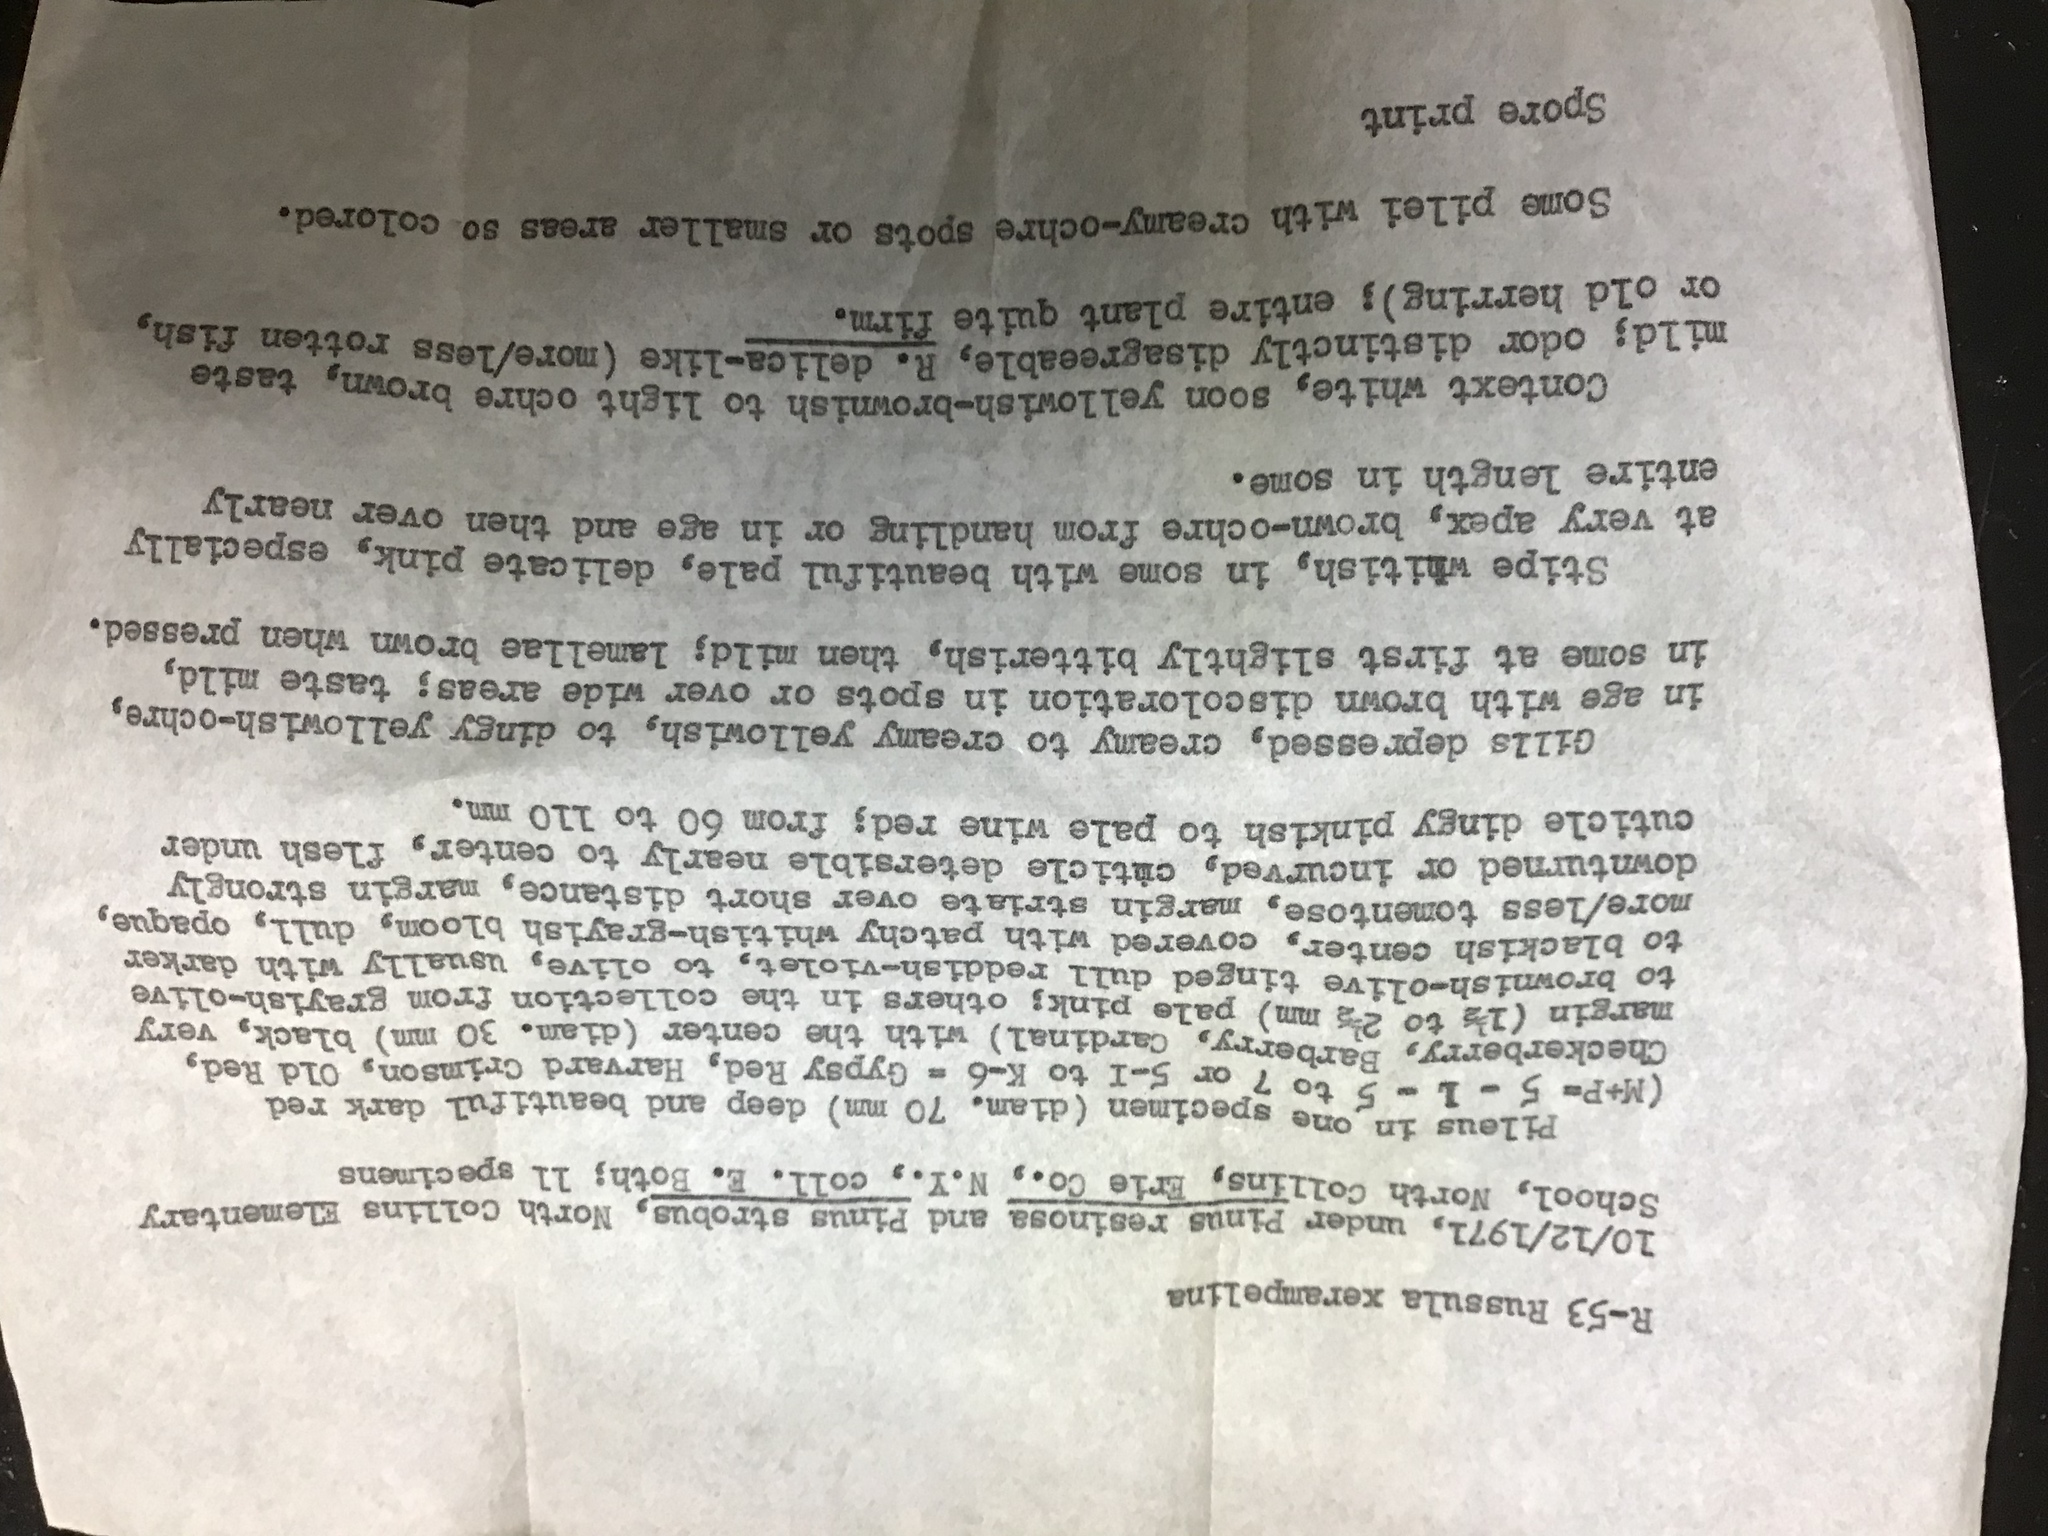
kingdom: Fungi
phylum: Basidiomycota
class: Agaricomycetes
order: Russulales
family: Russulaceae
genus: Russula
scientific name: Russula squalida
